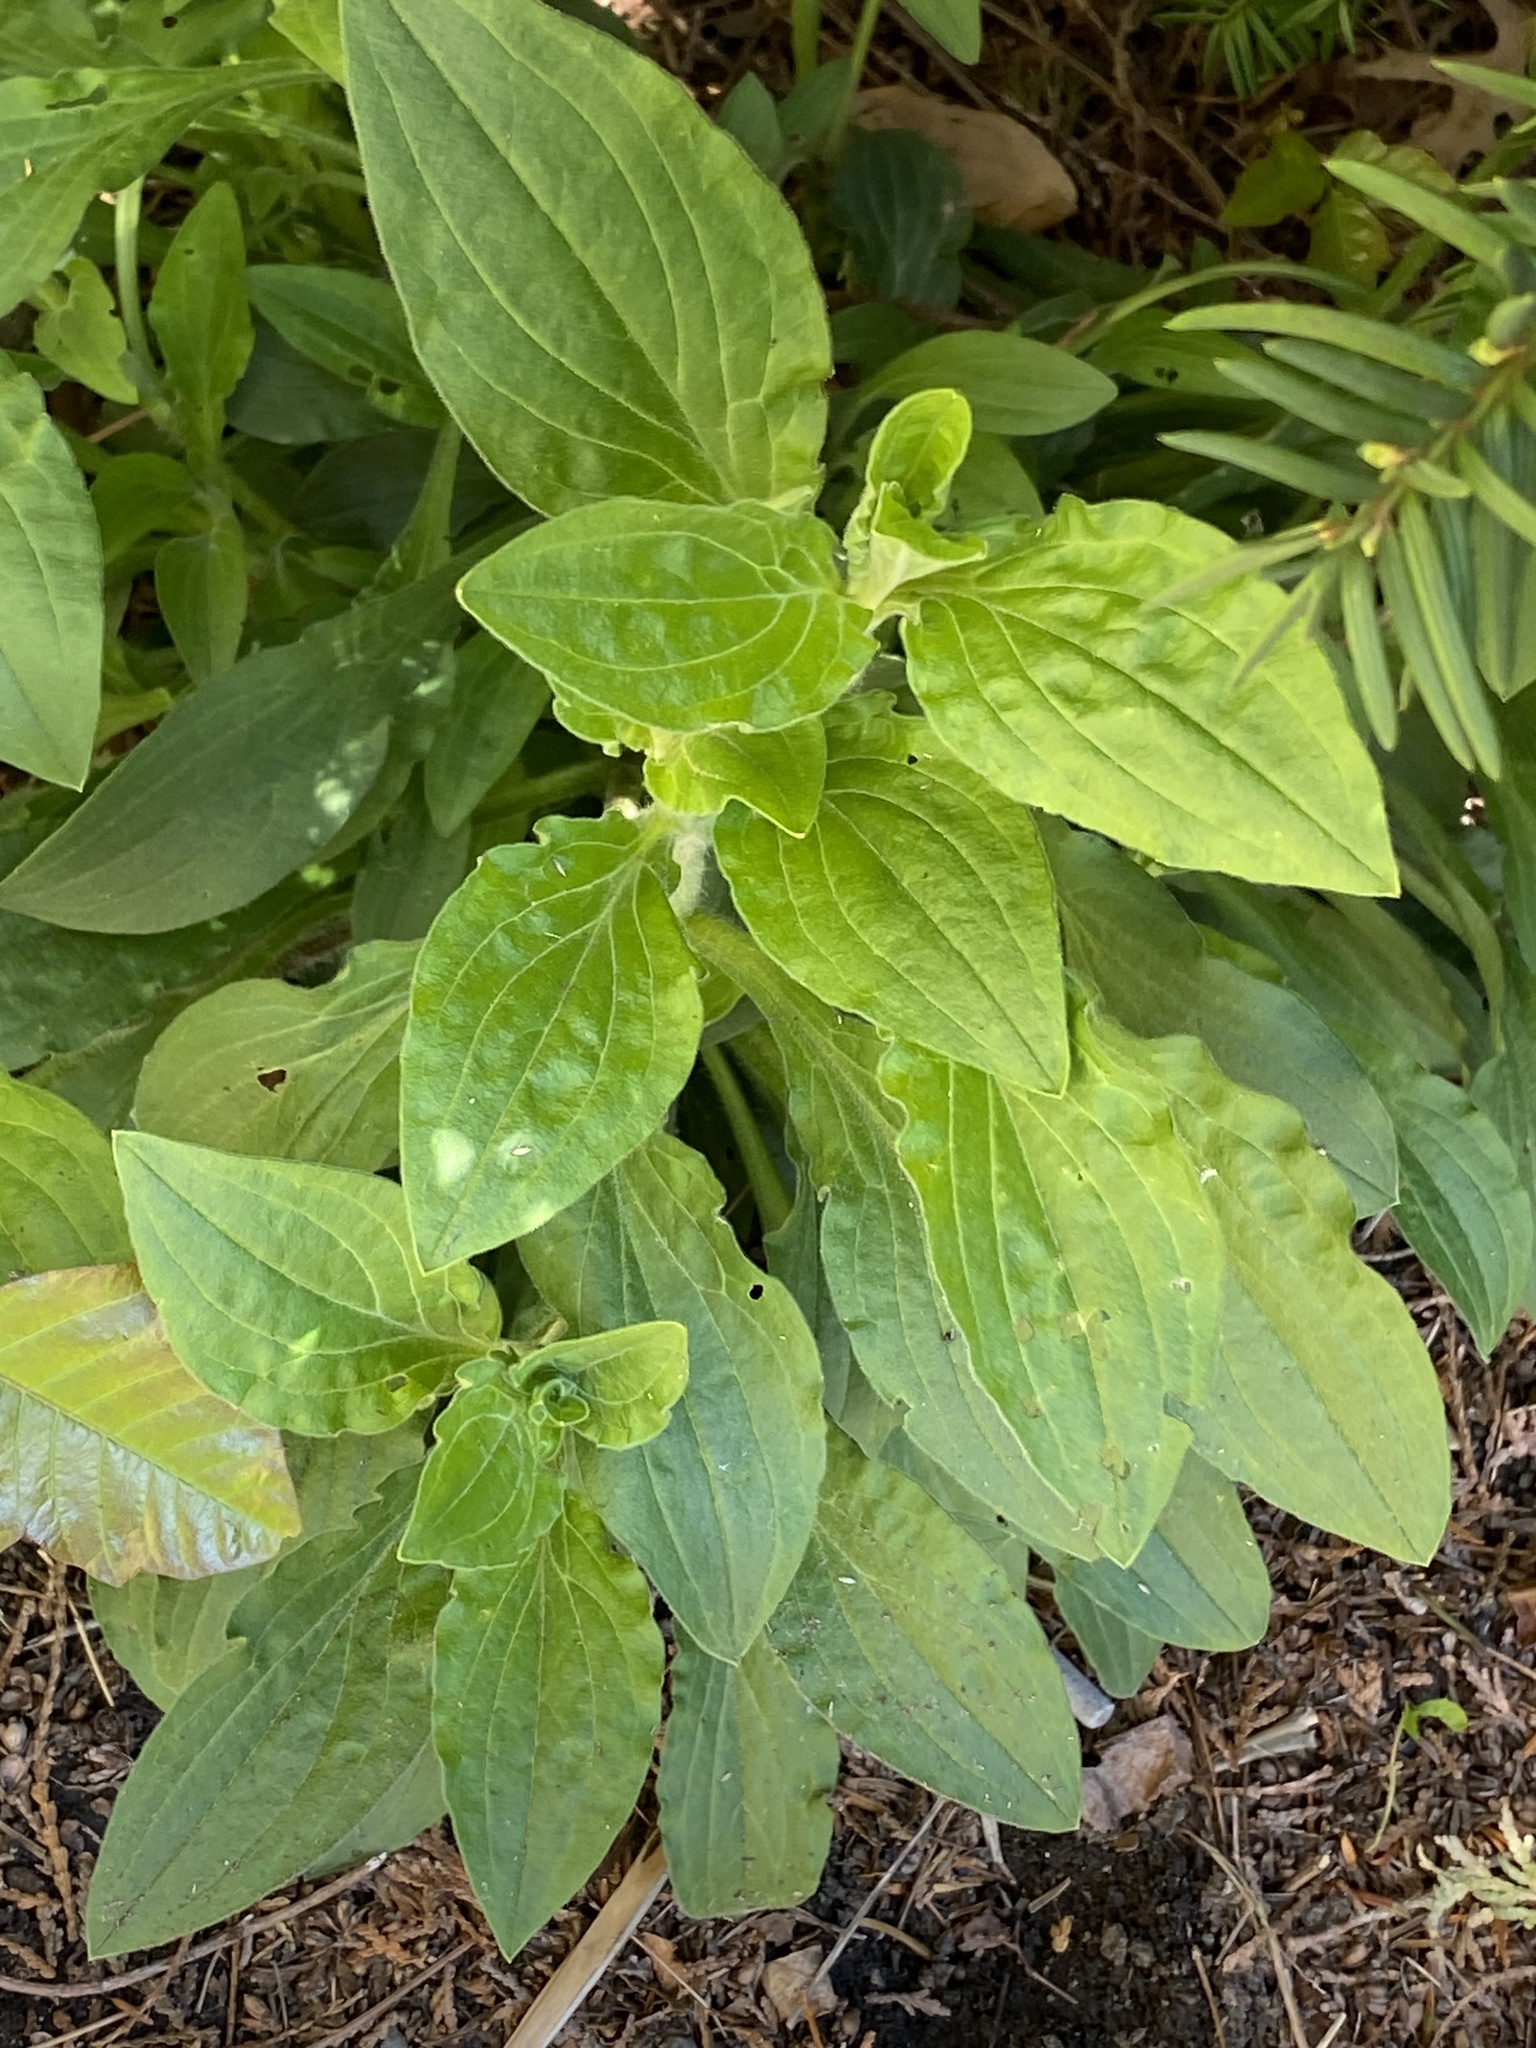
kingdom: Plantae
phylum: Tracheophyta
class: Magnoliopsida
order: Caryophyllales
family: Caryophyllaceae
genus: Silene
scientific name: Silene latifolia
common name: White campion
